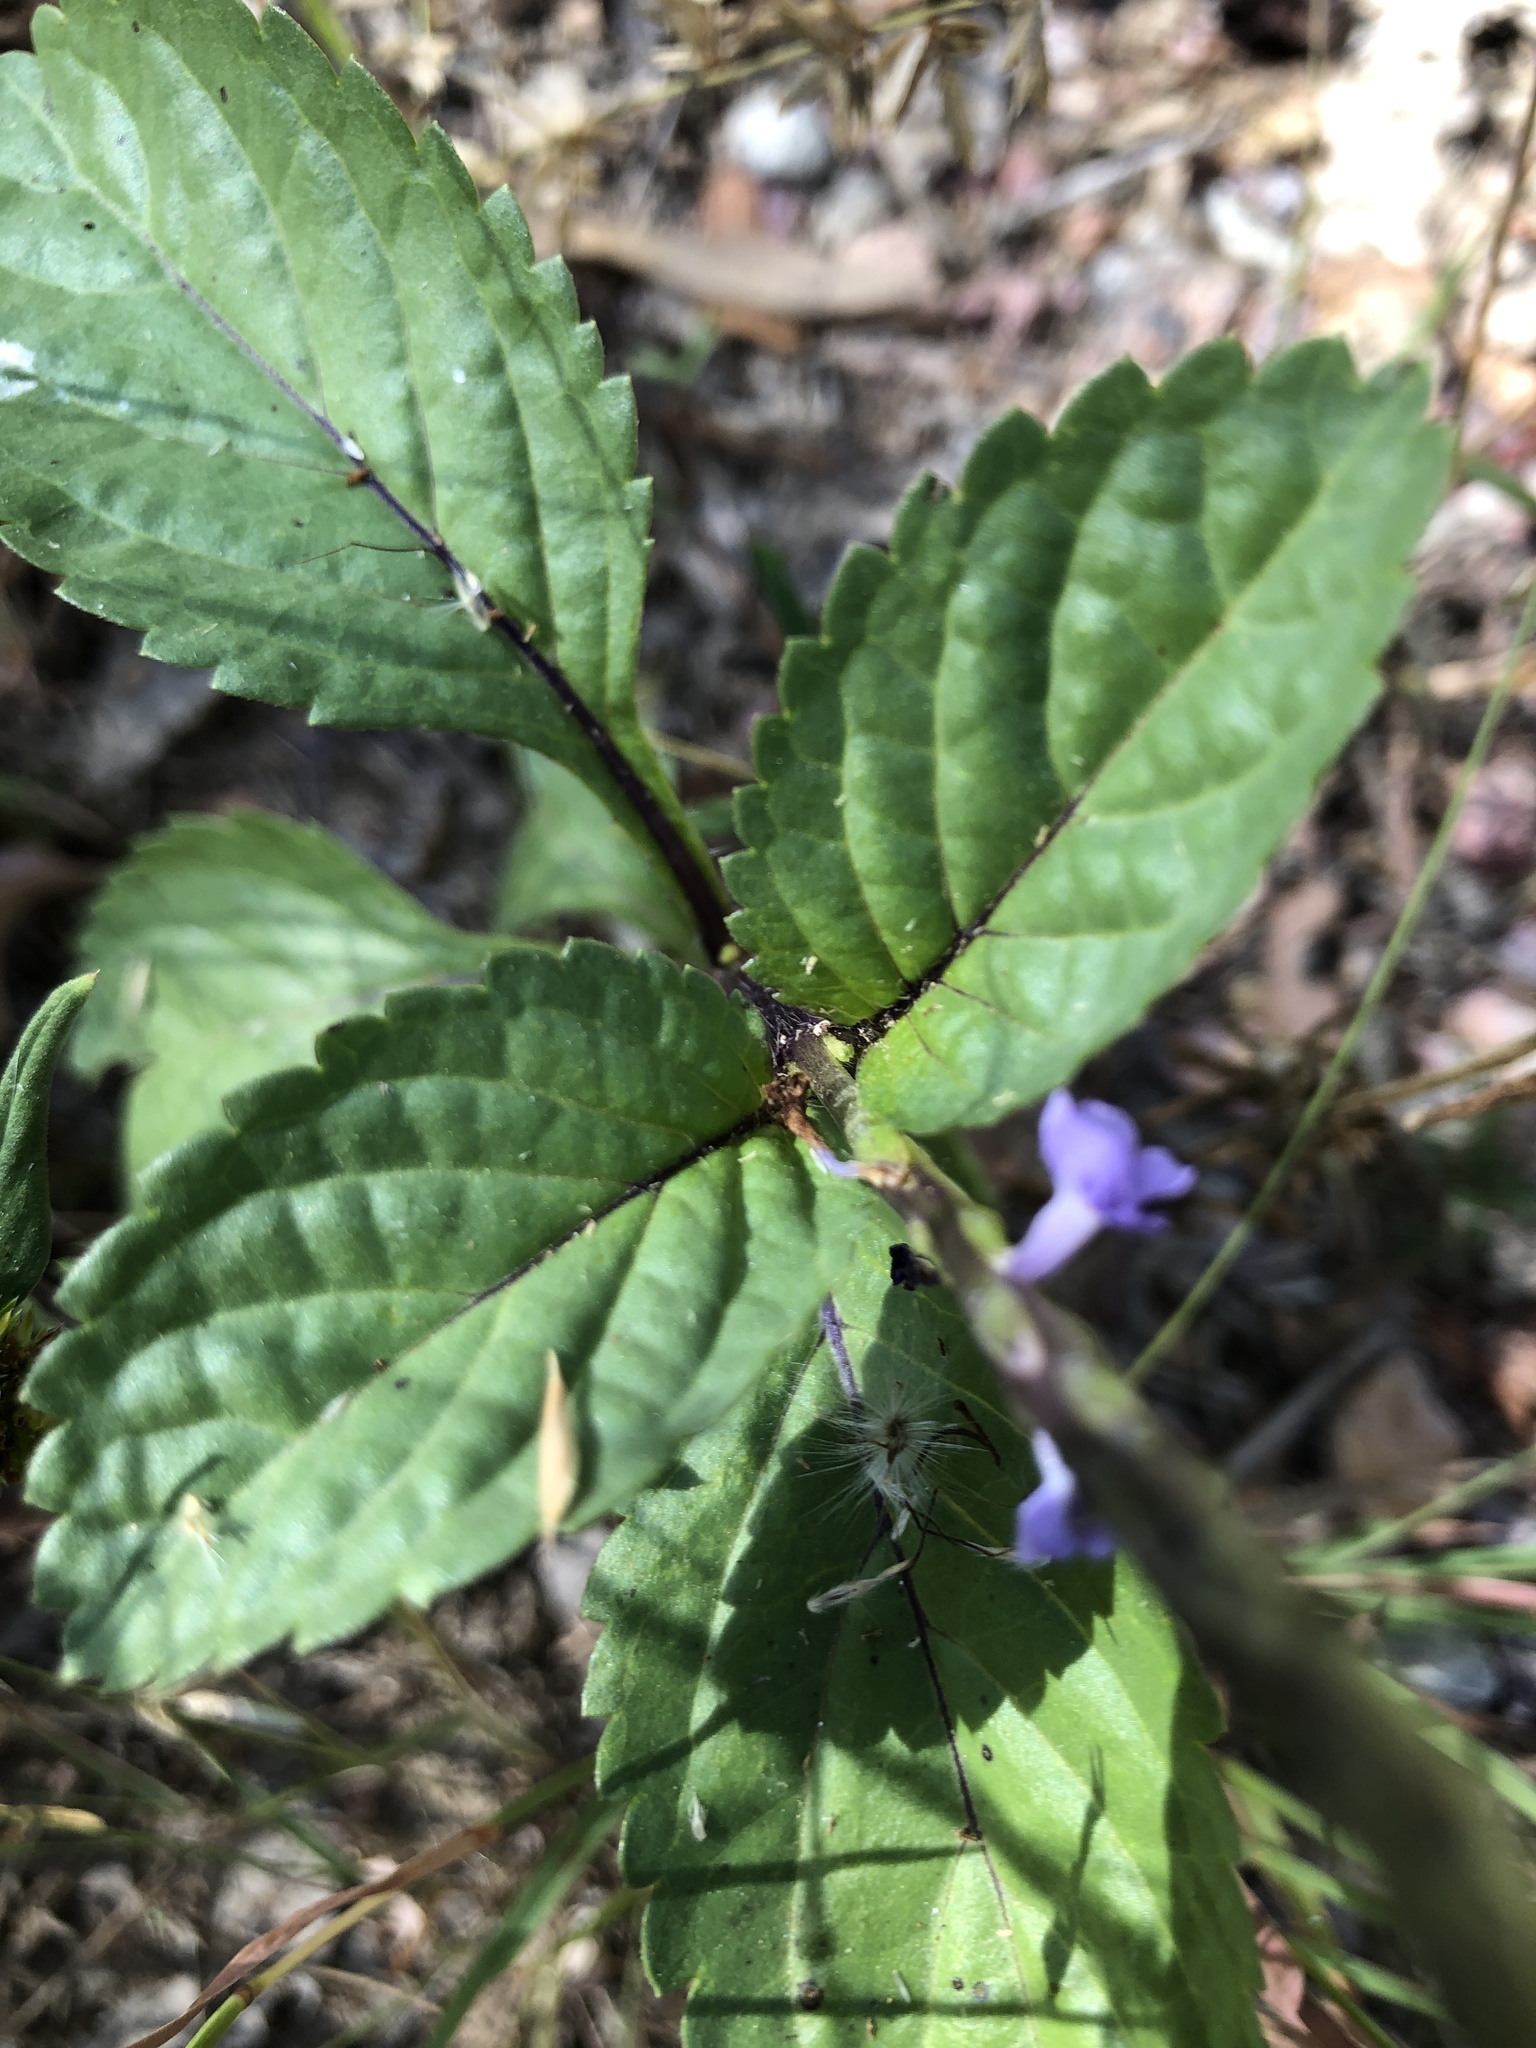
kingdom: Plantae
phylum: Tracheophyta
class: Magnoliopsida
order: Lamiales
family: Verbenaceae
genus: Stachytarpheta
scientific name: Stachytarpheta jamaicensis
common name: Light-blue snakeweed
